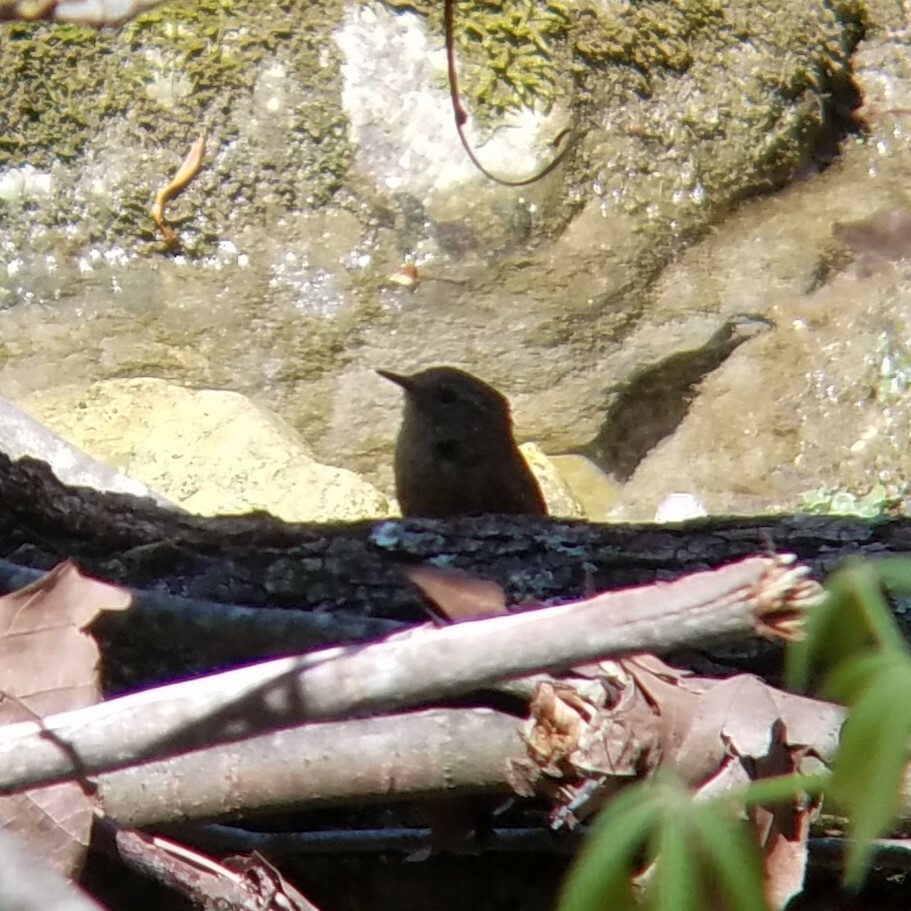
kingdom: Animalia
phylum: Chordata
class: Aves
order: Passeriformes
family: Troglodytidae
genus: Troglodytes
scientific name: Troglodytes hiemalis
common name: Winter wren
